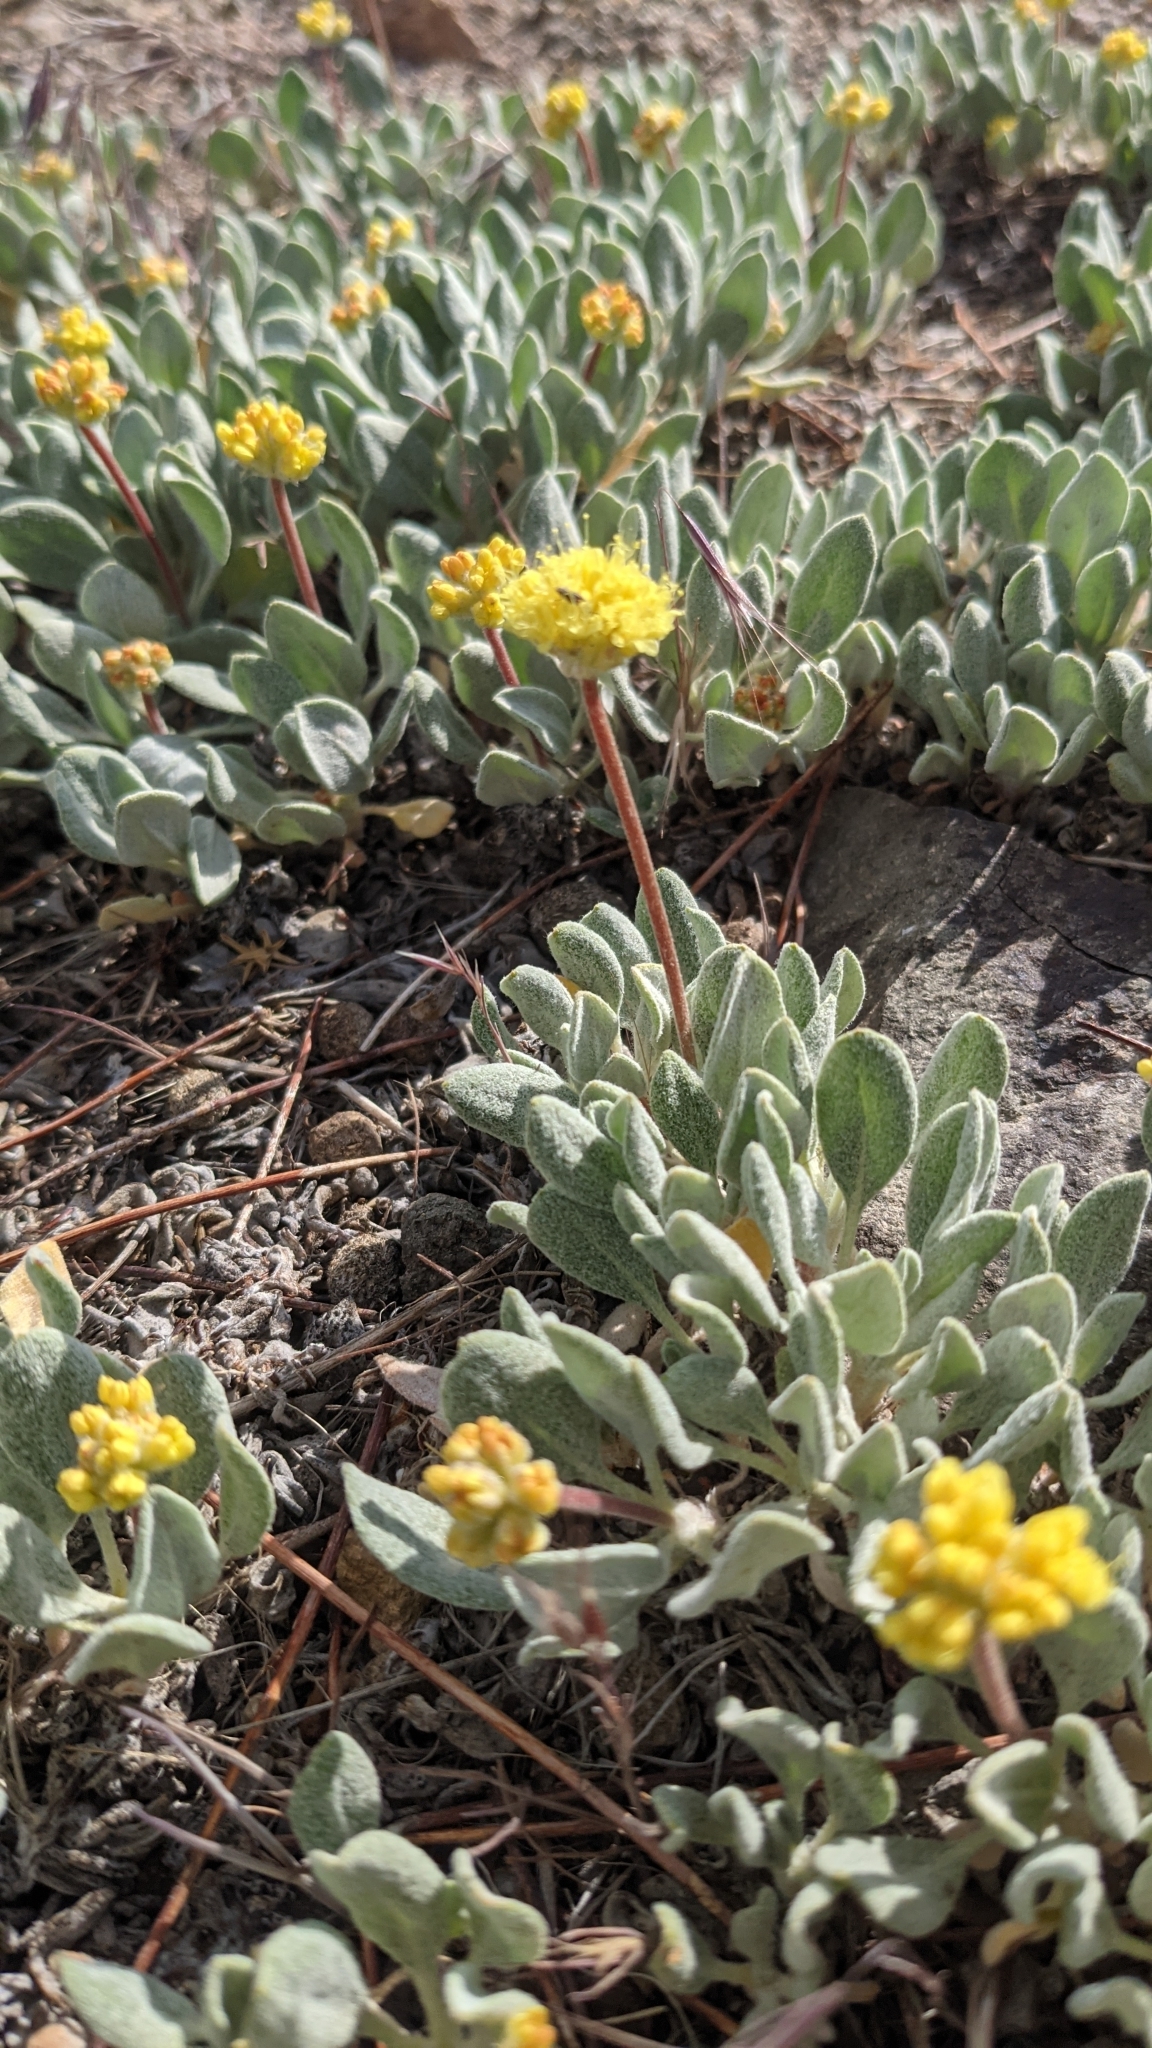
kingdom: Plantae
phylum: Tracheophyta
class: Magnoliopsida
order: Caryophyllales
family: Polygonaceae
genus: Eriogonum
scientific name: Eriogonum ochrocephalum
